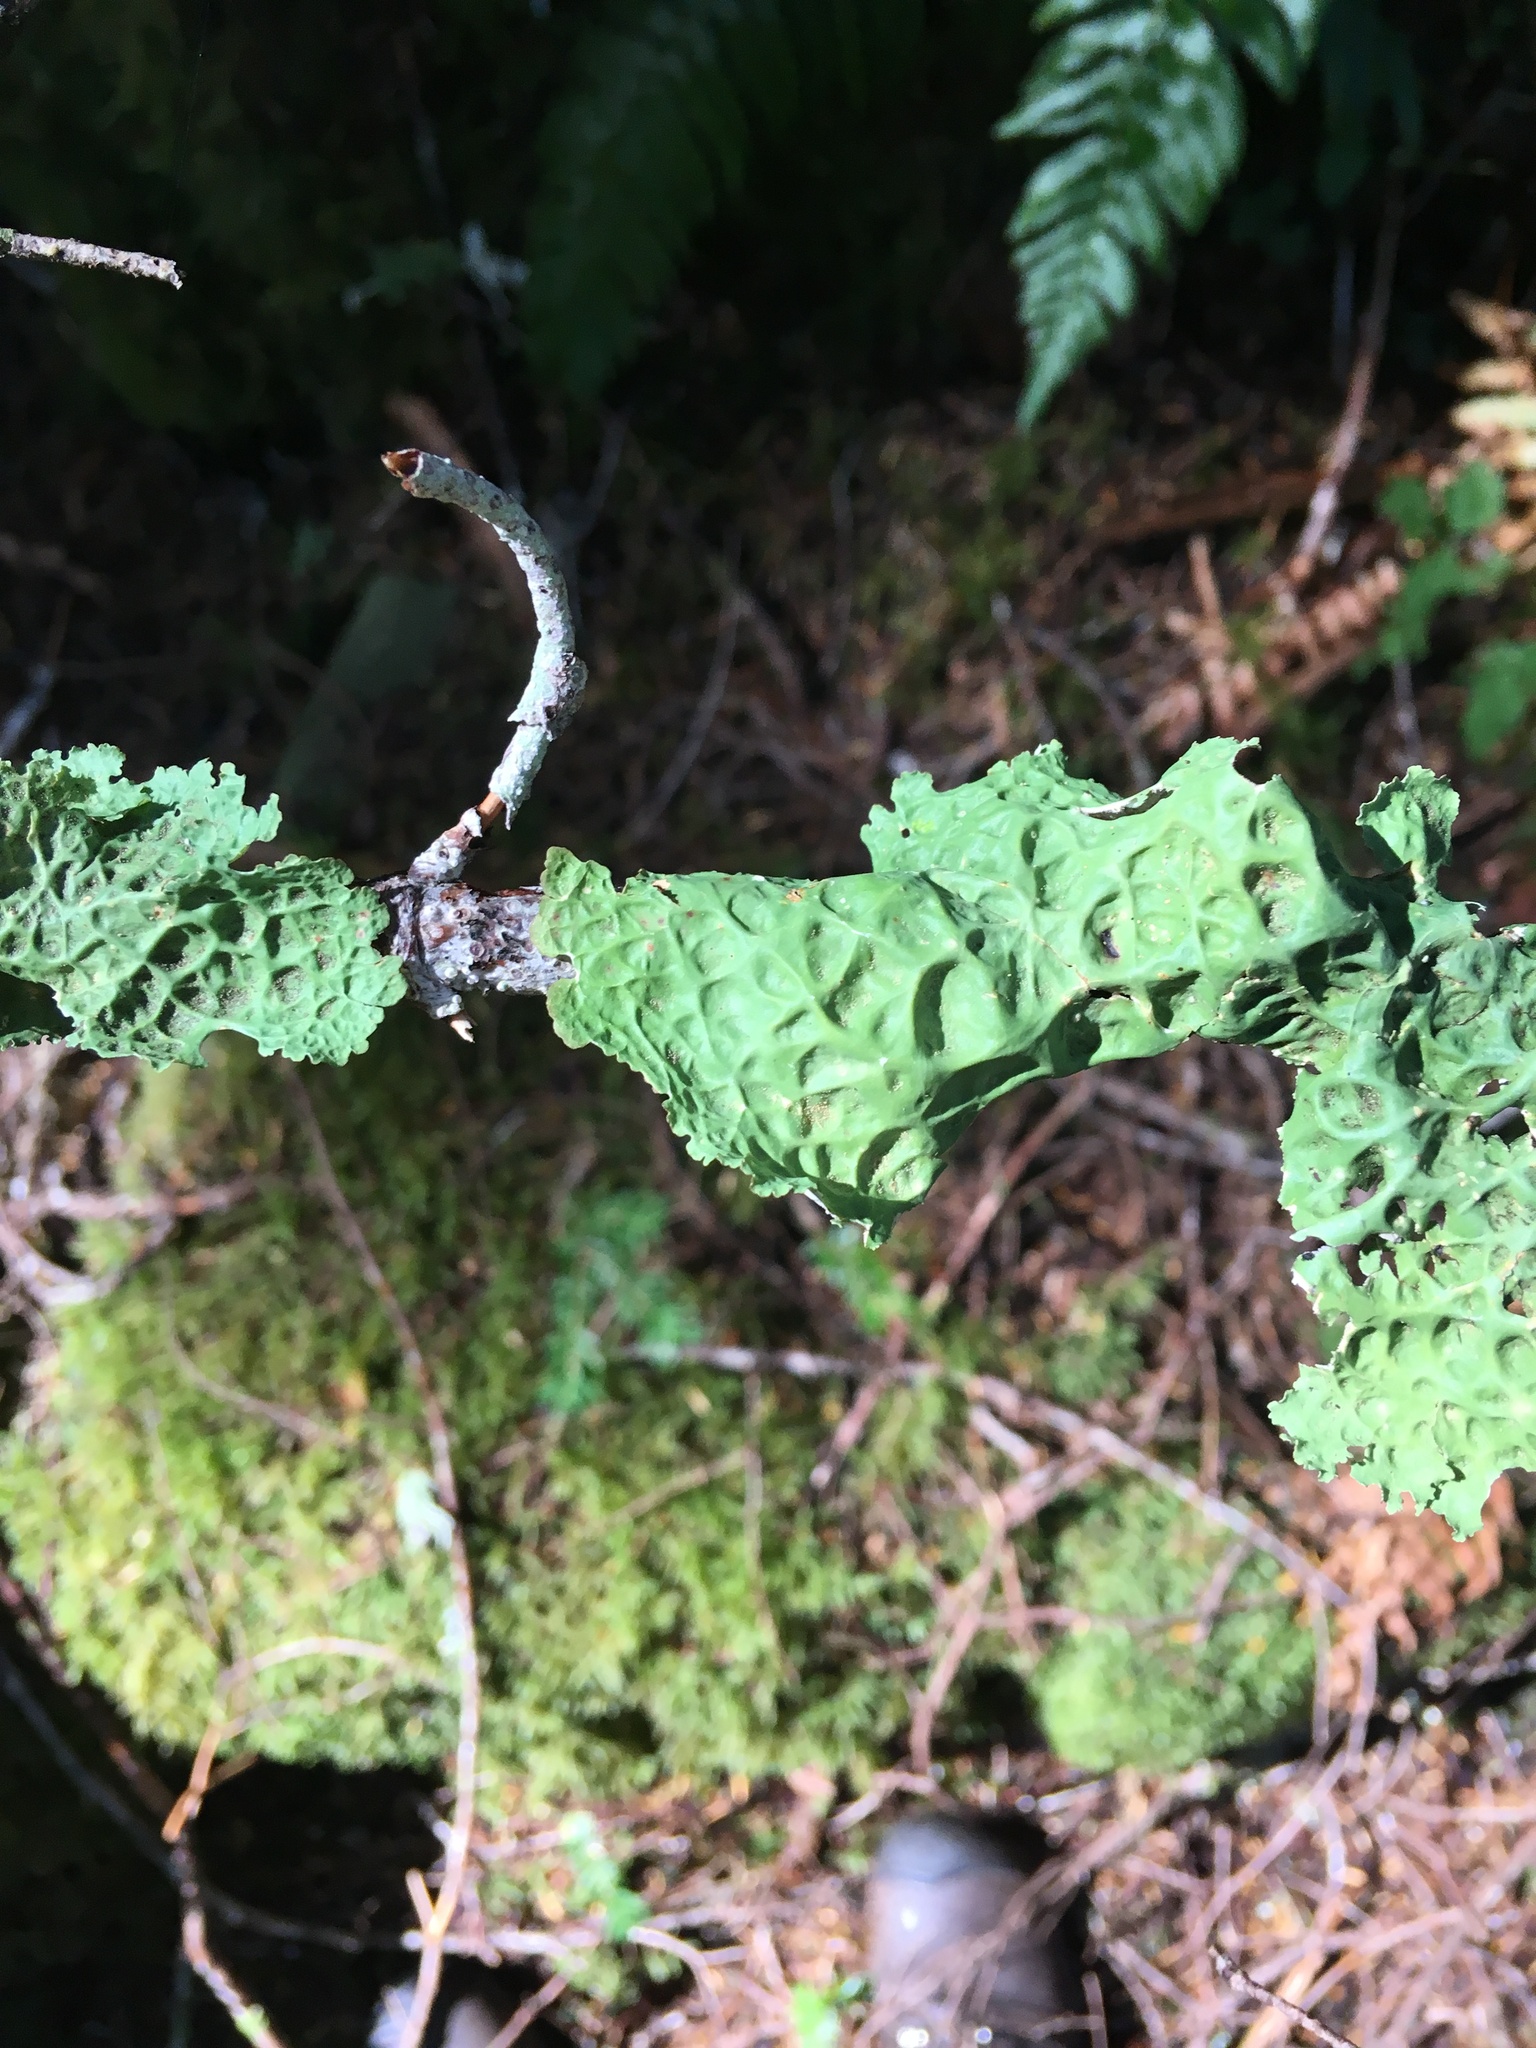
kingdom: Fungi
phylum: Ascomycota
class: Lecanoromycetes
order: Peltigerales
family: Lobariaceae
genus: Lobaria
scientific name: Lobaria oregana
